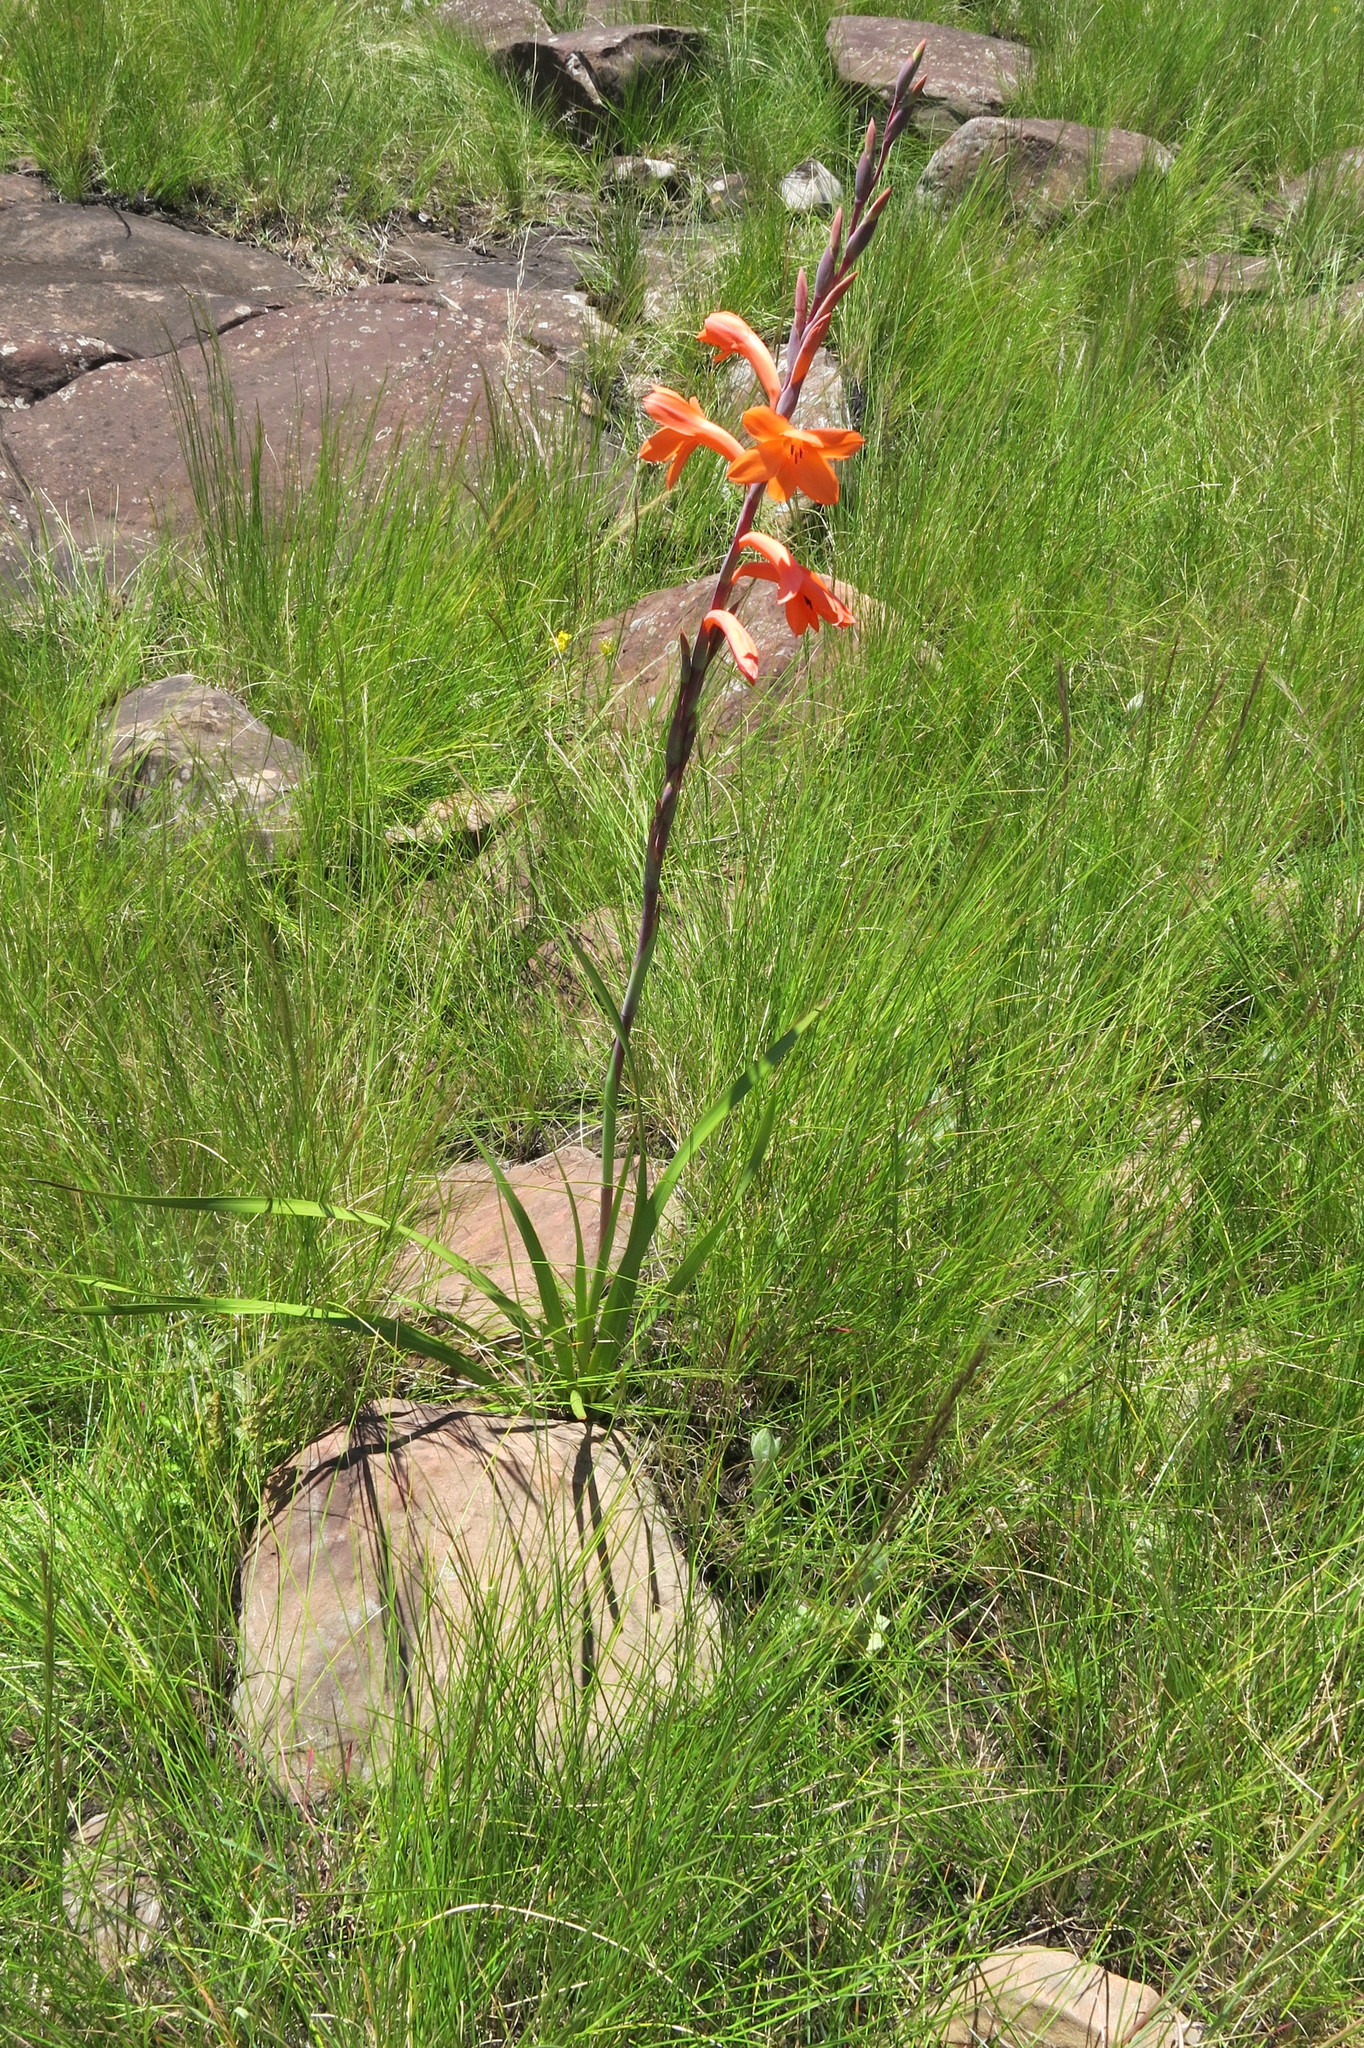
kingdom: Plantae
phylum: Tracheophyta
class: Liliopsida
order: Asparagales
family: Iridaceae
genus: Watsonia
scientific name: Watsonia pillansii
